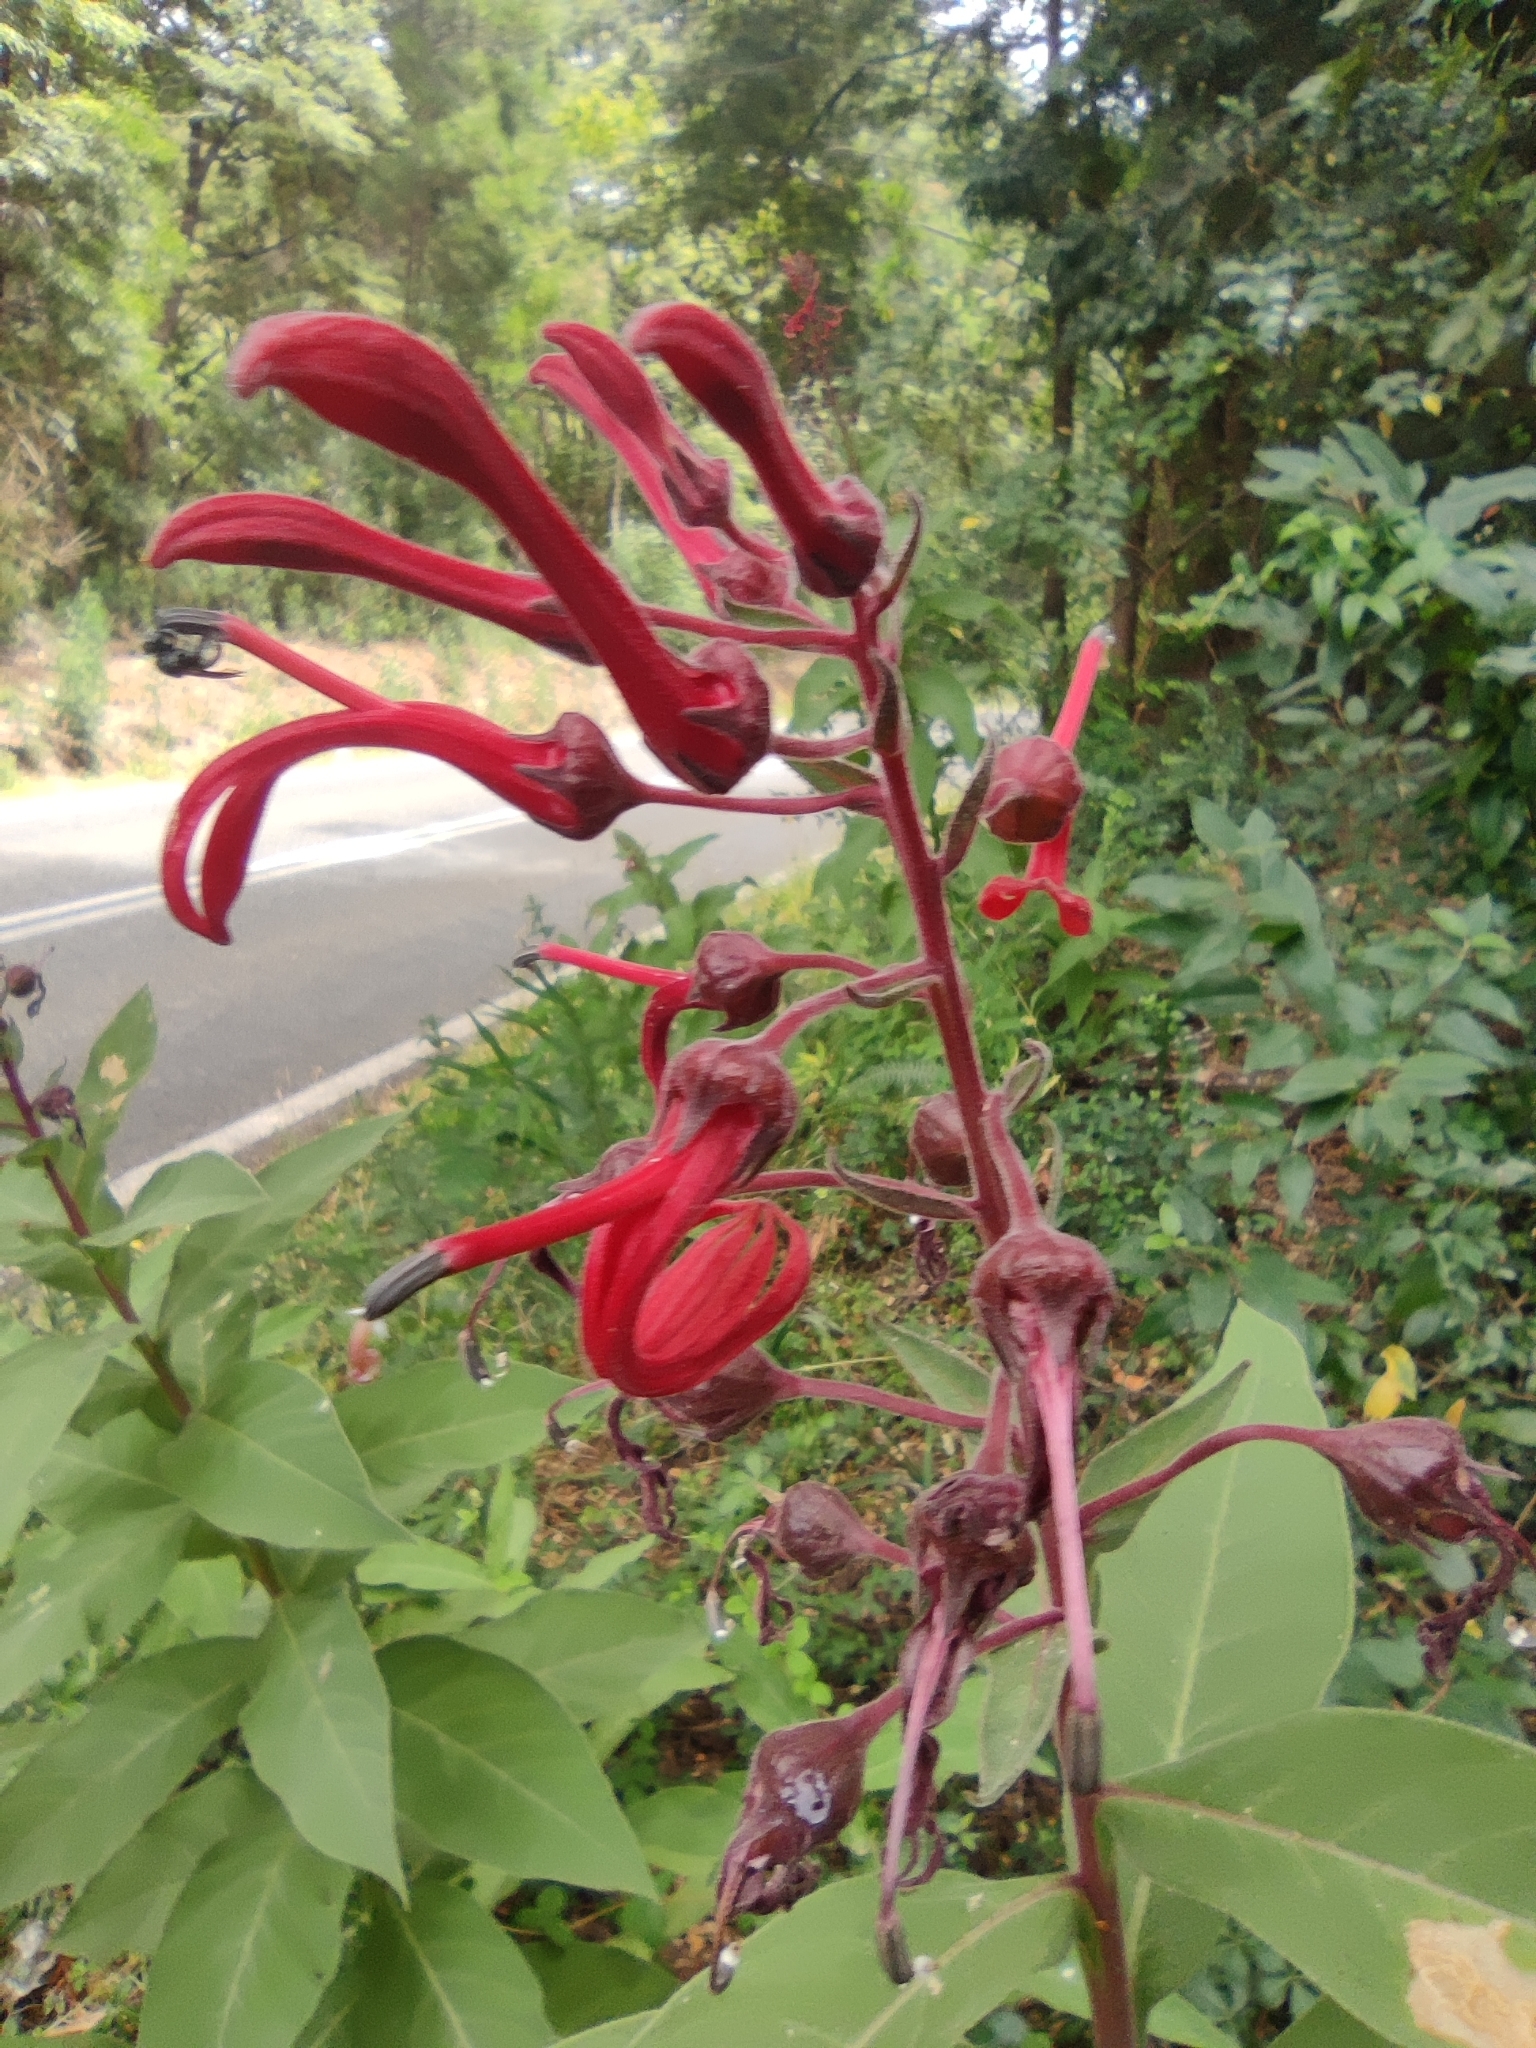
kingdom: Plantae
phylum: Tracheophyta
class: Magnoliopsida
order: Asterales
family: Campanulaceae
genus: Lobelia
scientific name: Lobelia tupa
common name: Devil's-tobacco
